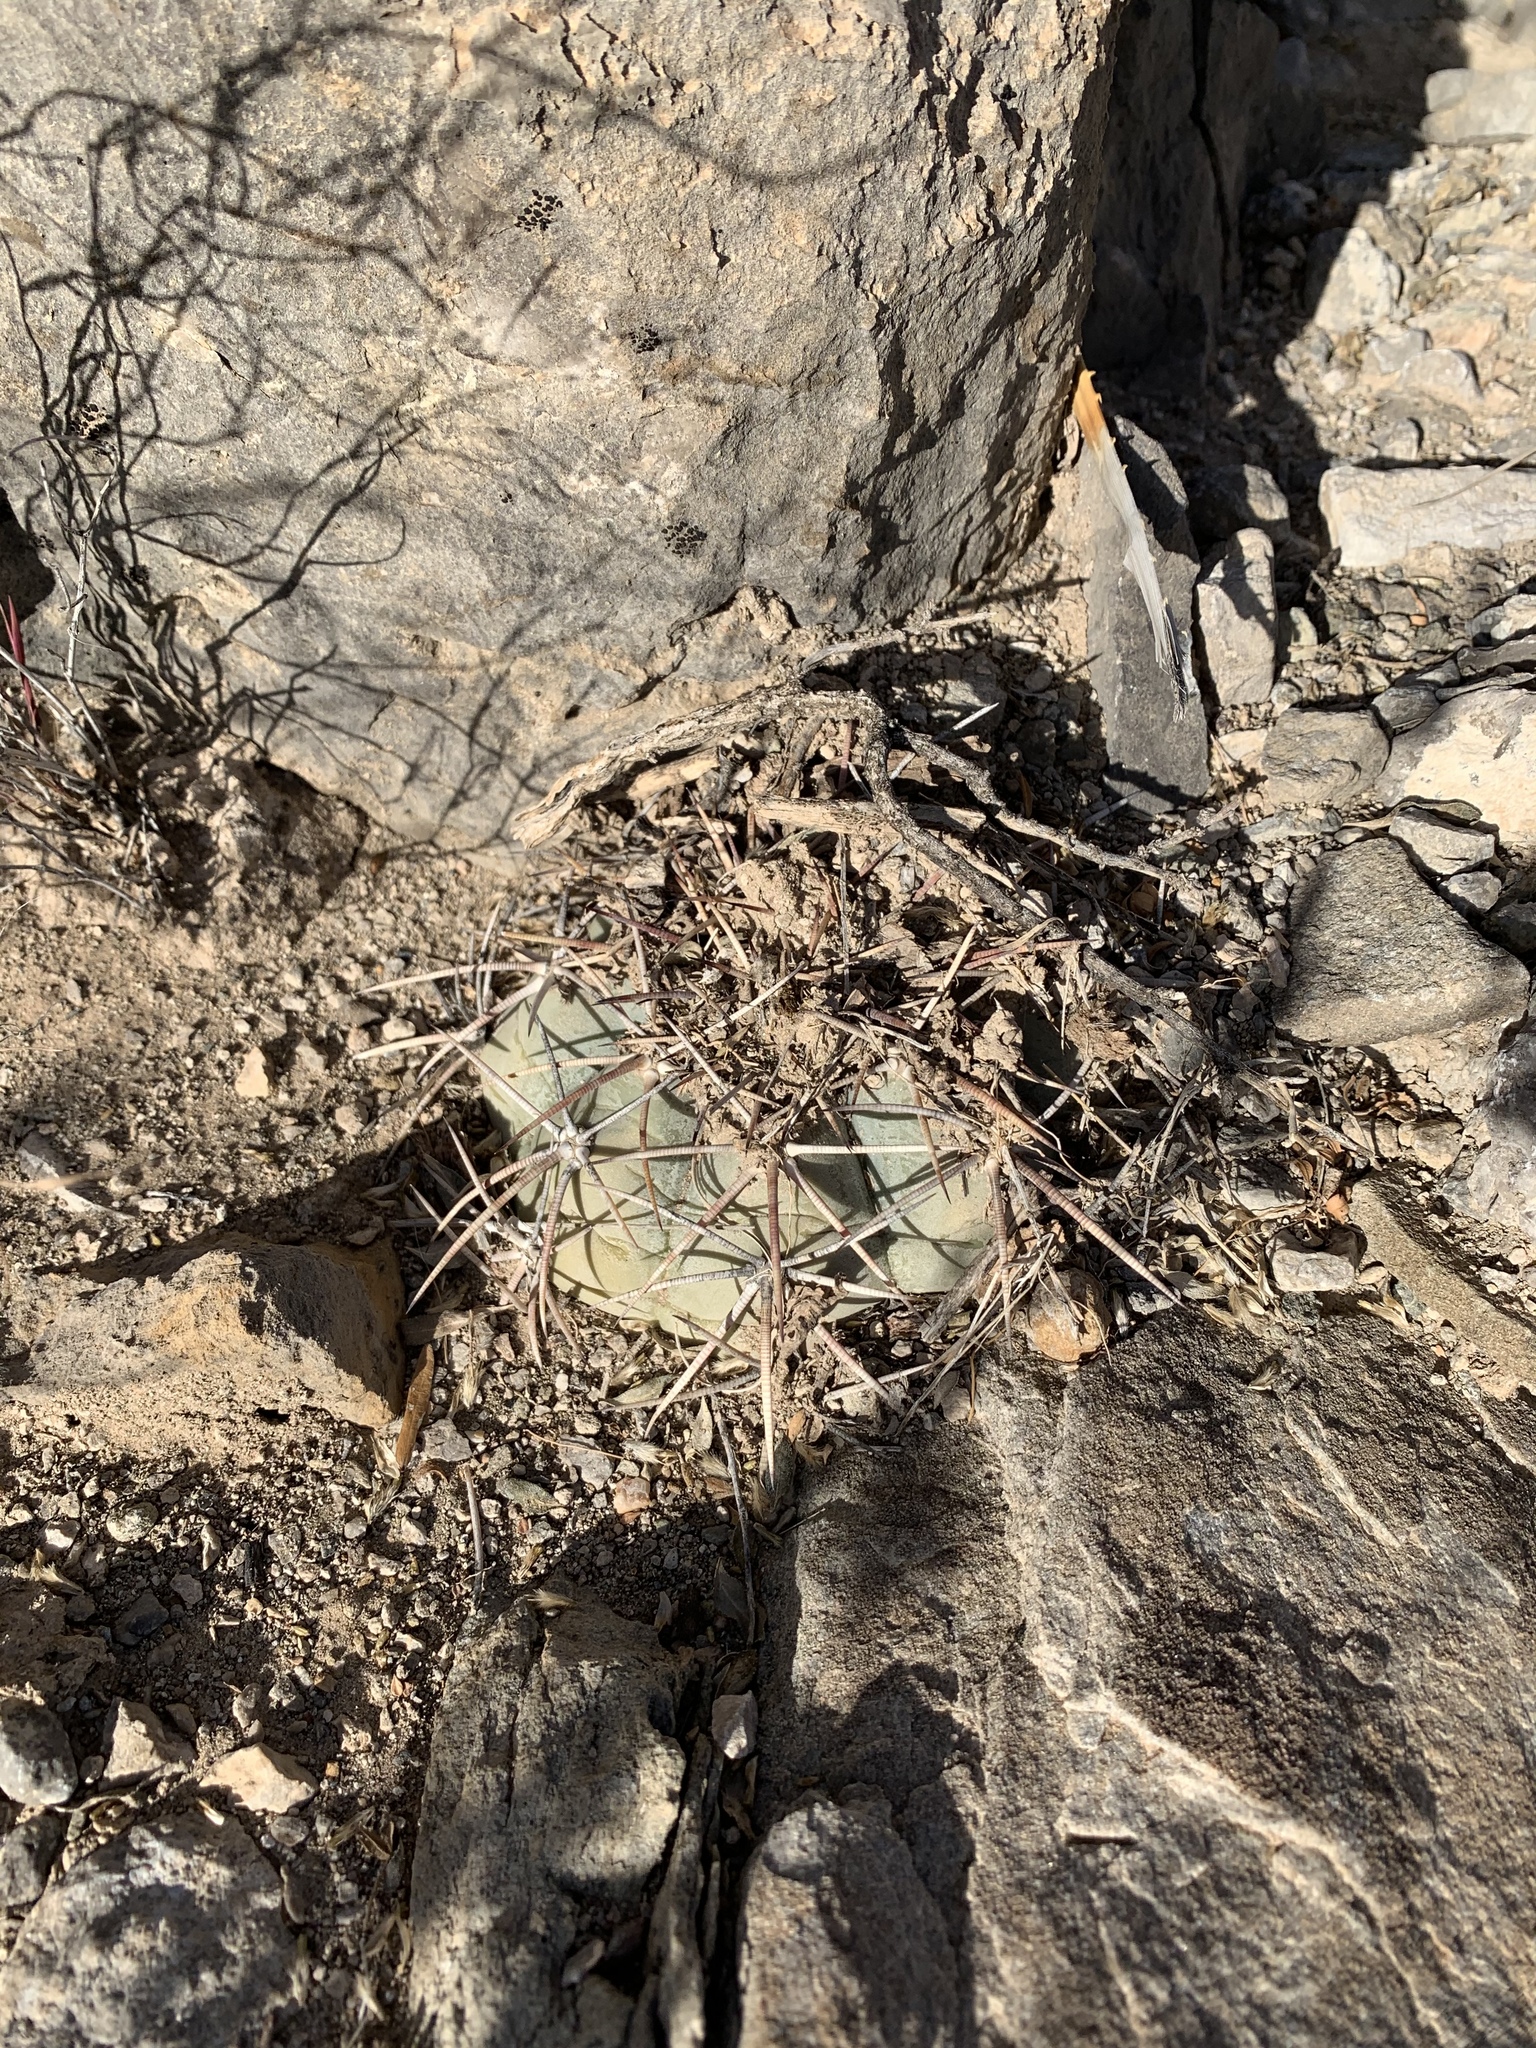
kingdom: Plantae
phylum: Tracheophyta
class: Magnoliopsida
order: Caryophyllales
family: Cactaceae
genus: Echinocactus
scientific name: Echinocactus horizonthalonius
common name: Devilshead
